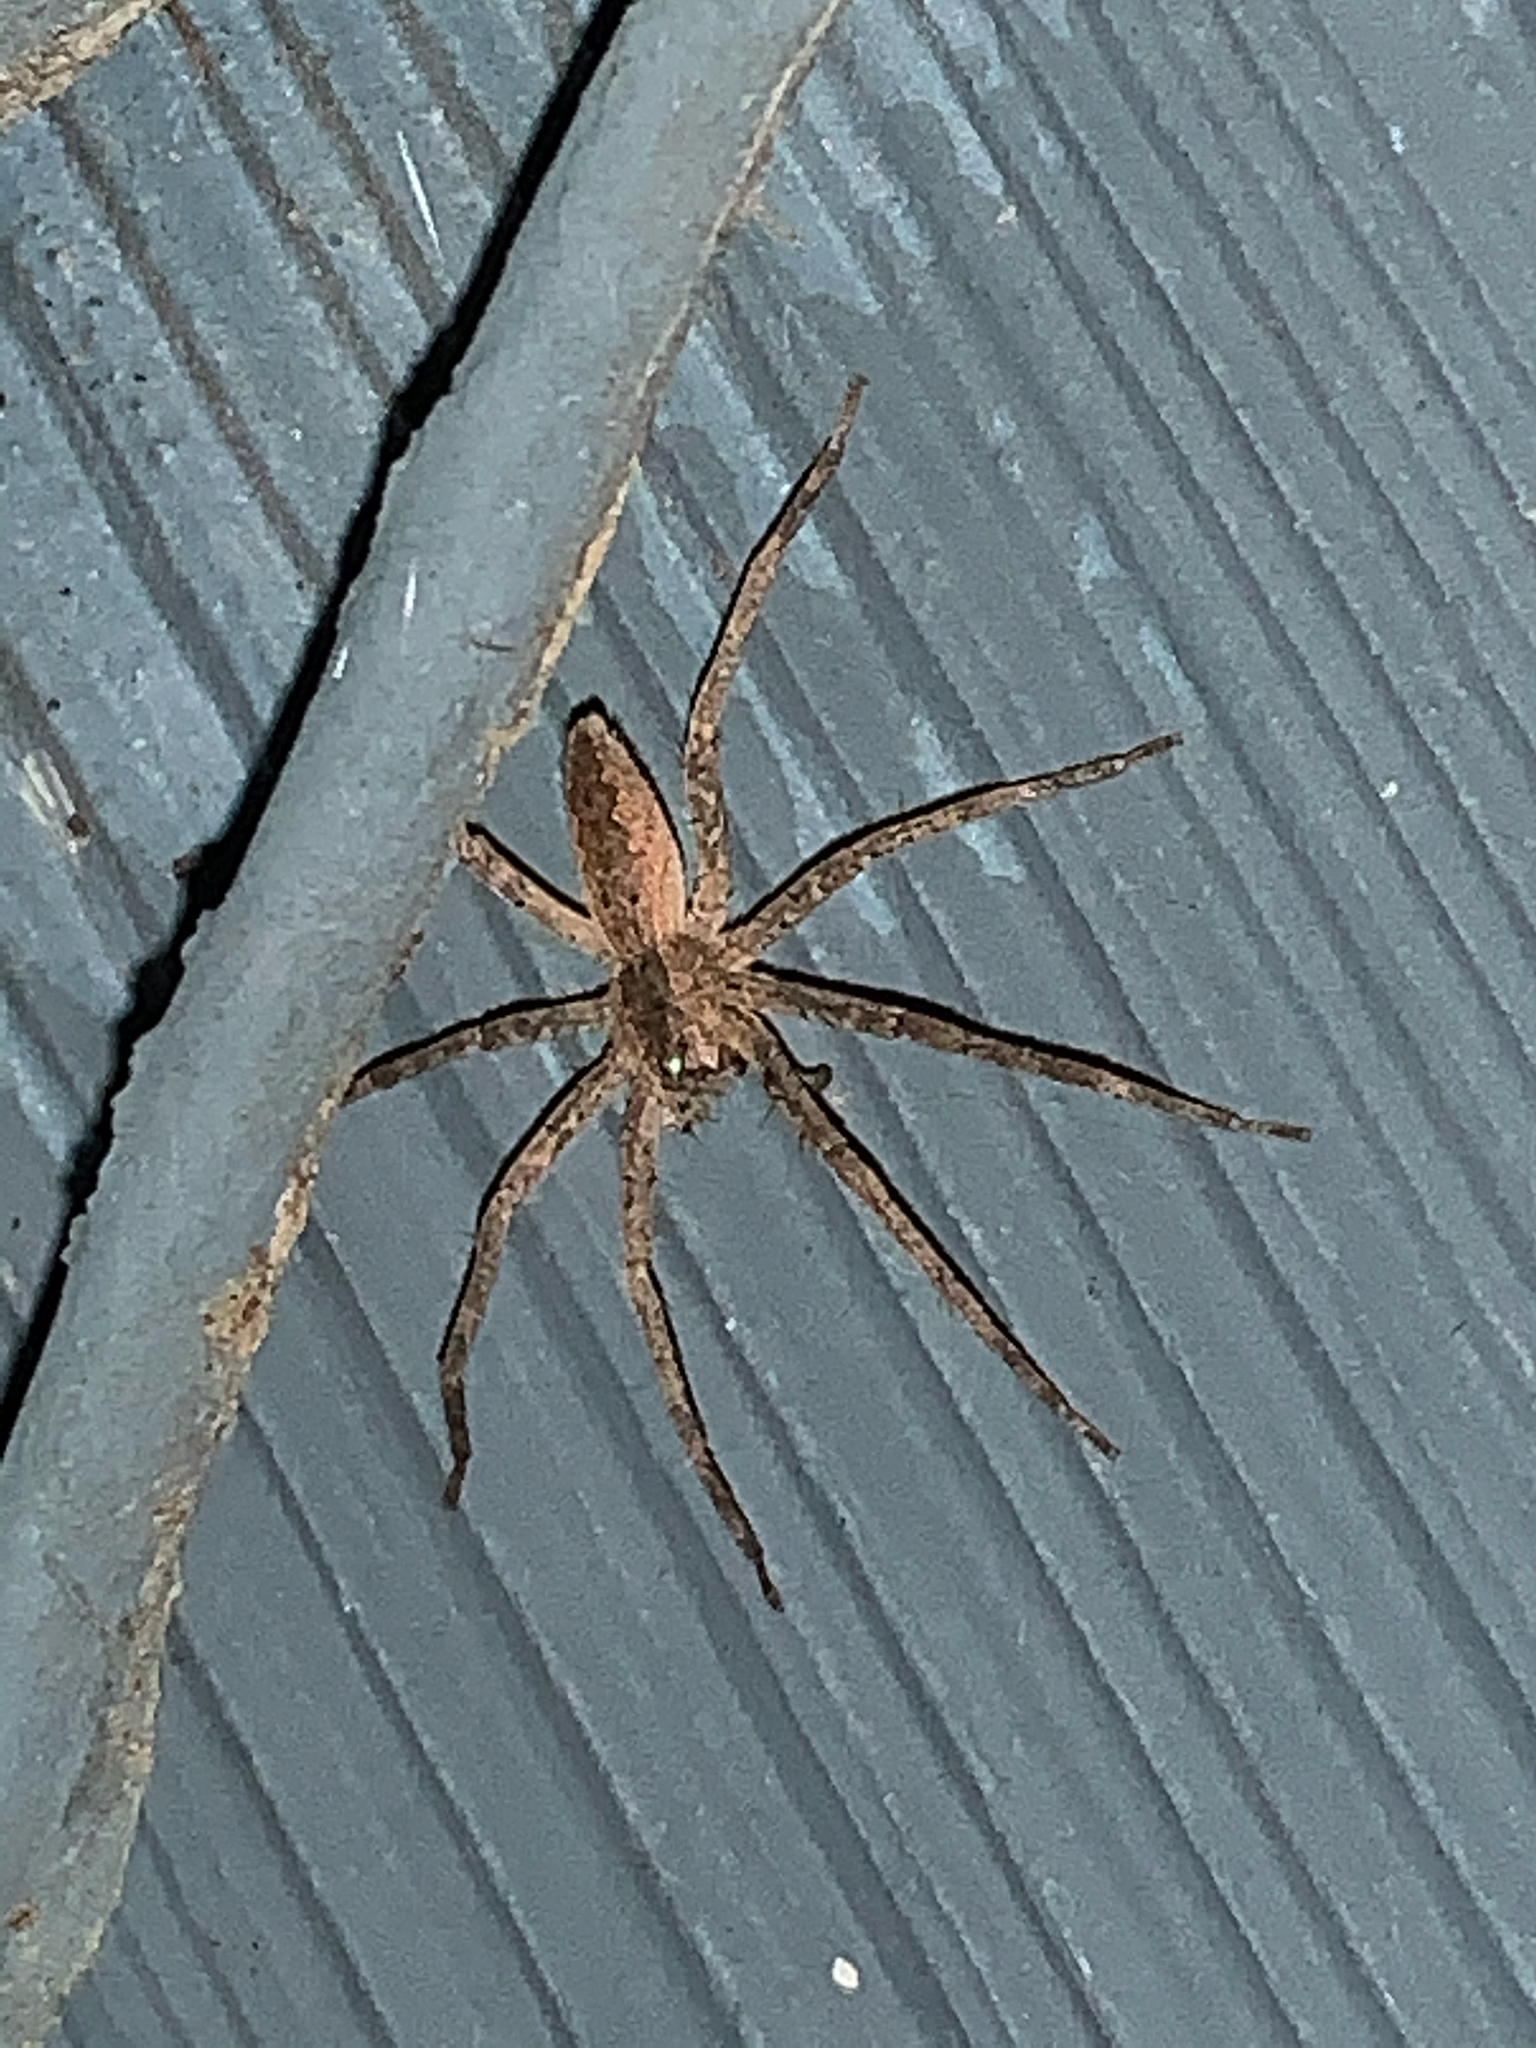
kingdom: Animalia
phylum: Arthropoda
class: Arachnida
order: Araneae
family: Pisauridae
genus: Pisaurina
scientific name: Pisaurina mira
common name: American nursery web spider
